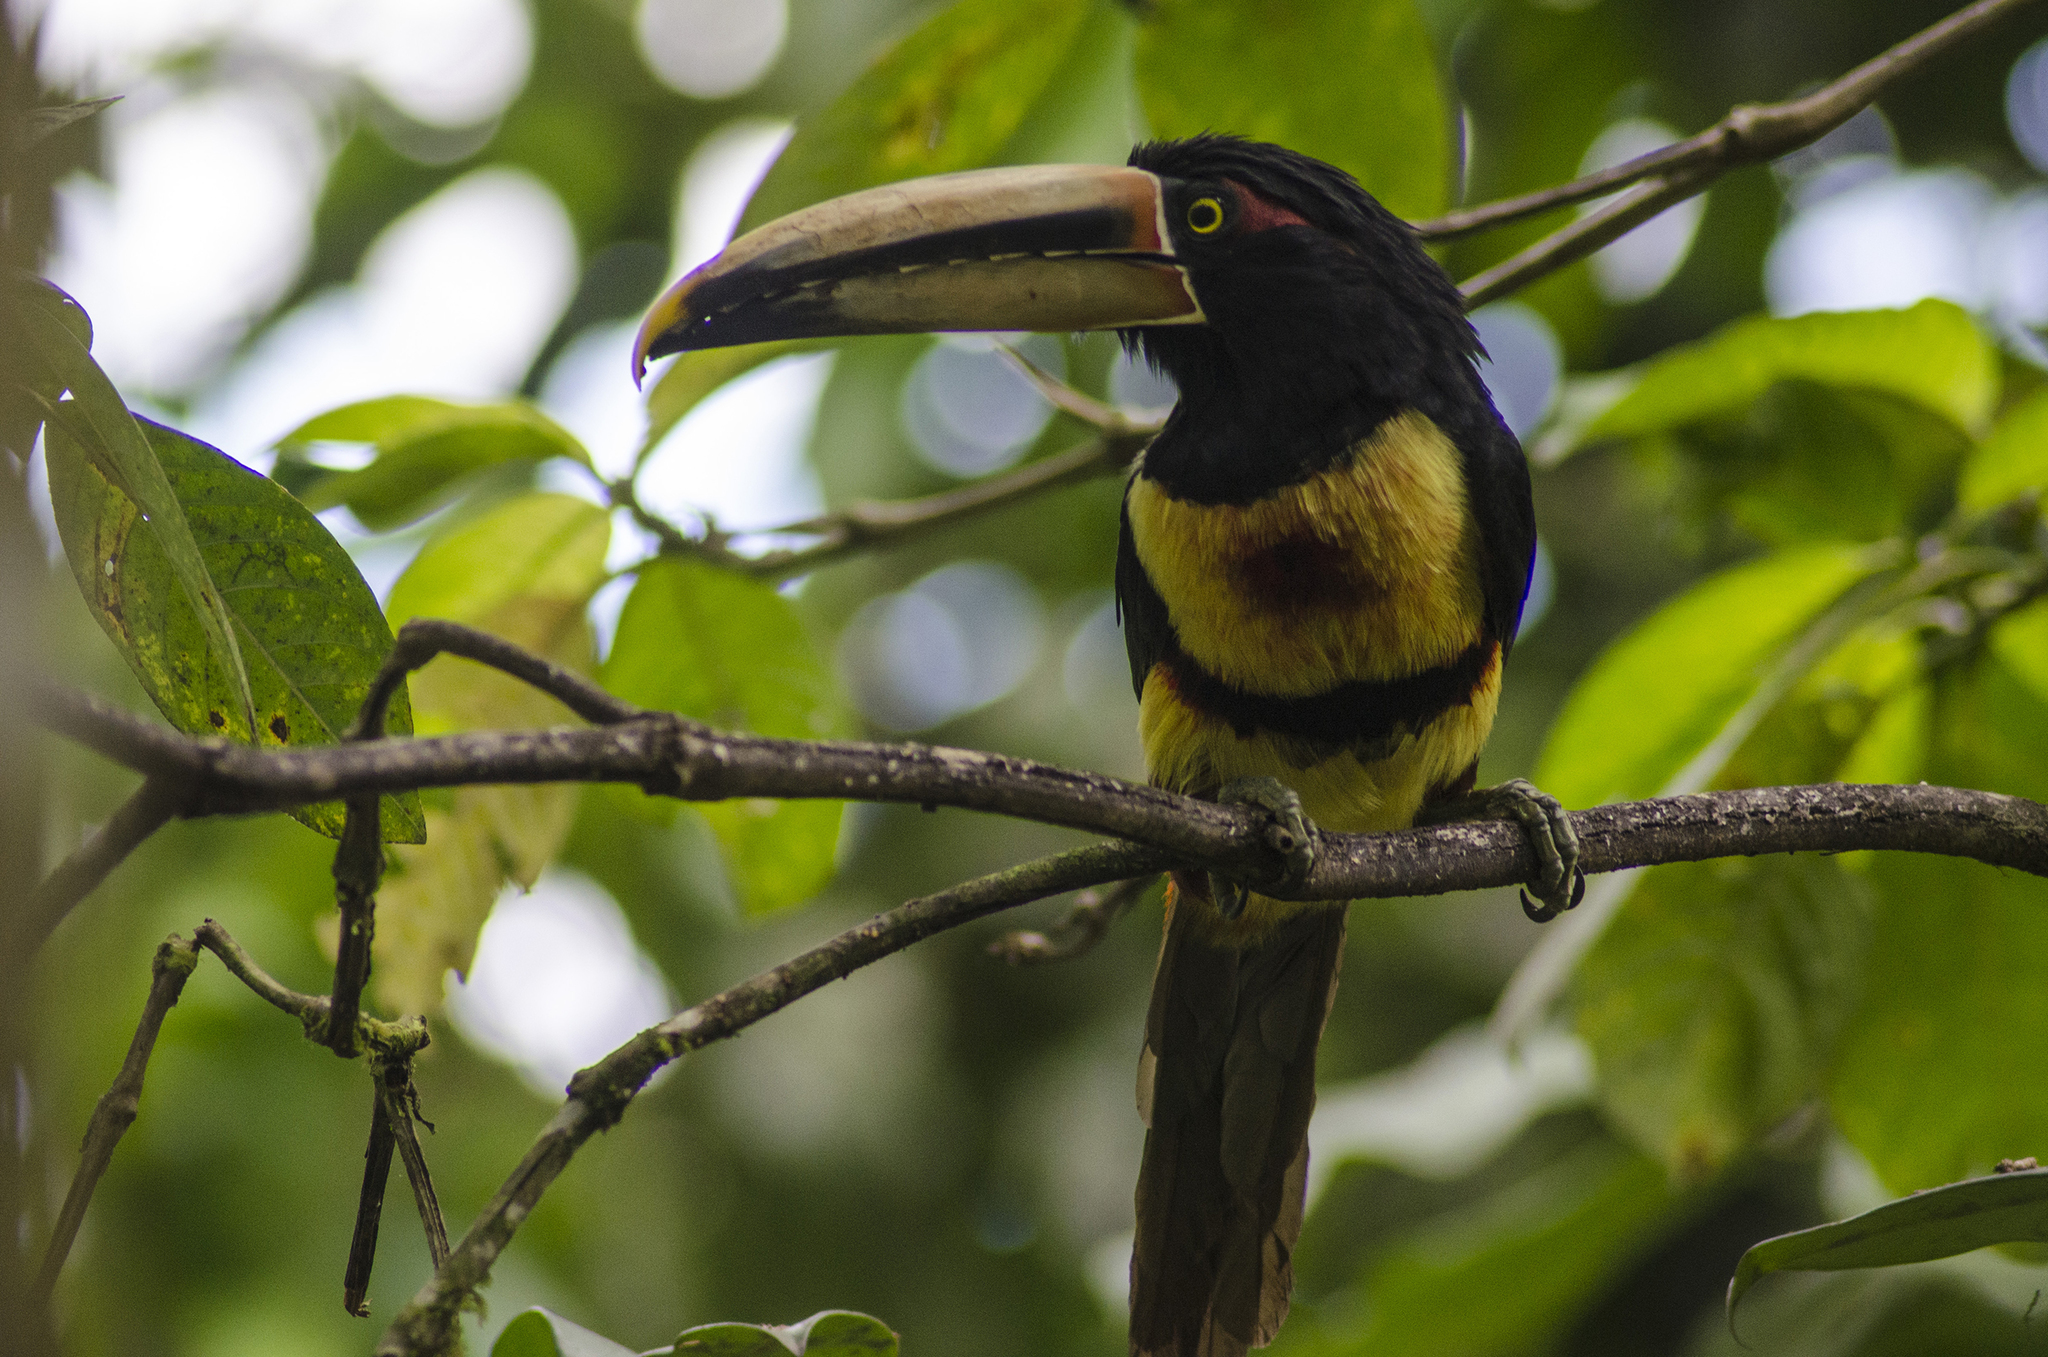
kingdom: Animalia
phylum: Chordata
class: Aves
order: Piciformes
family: Ramphastidae
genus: Pteroglossus
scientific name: Pteroglossus torquatus
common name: Collared aracari
